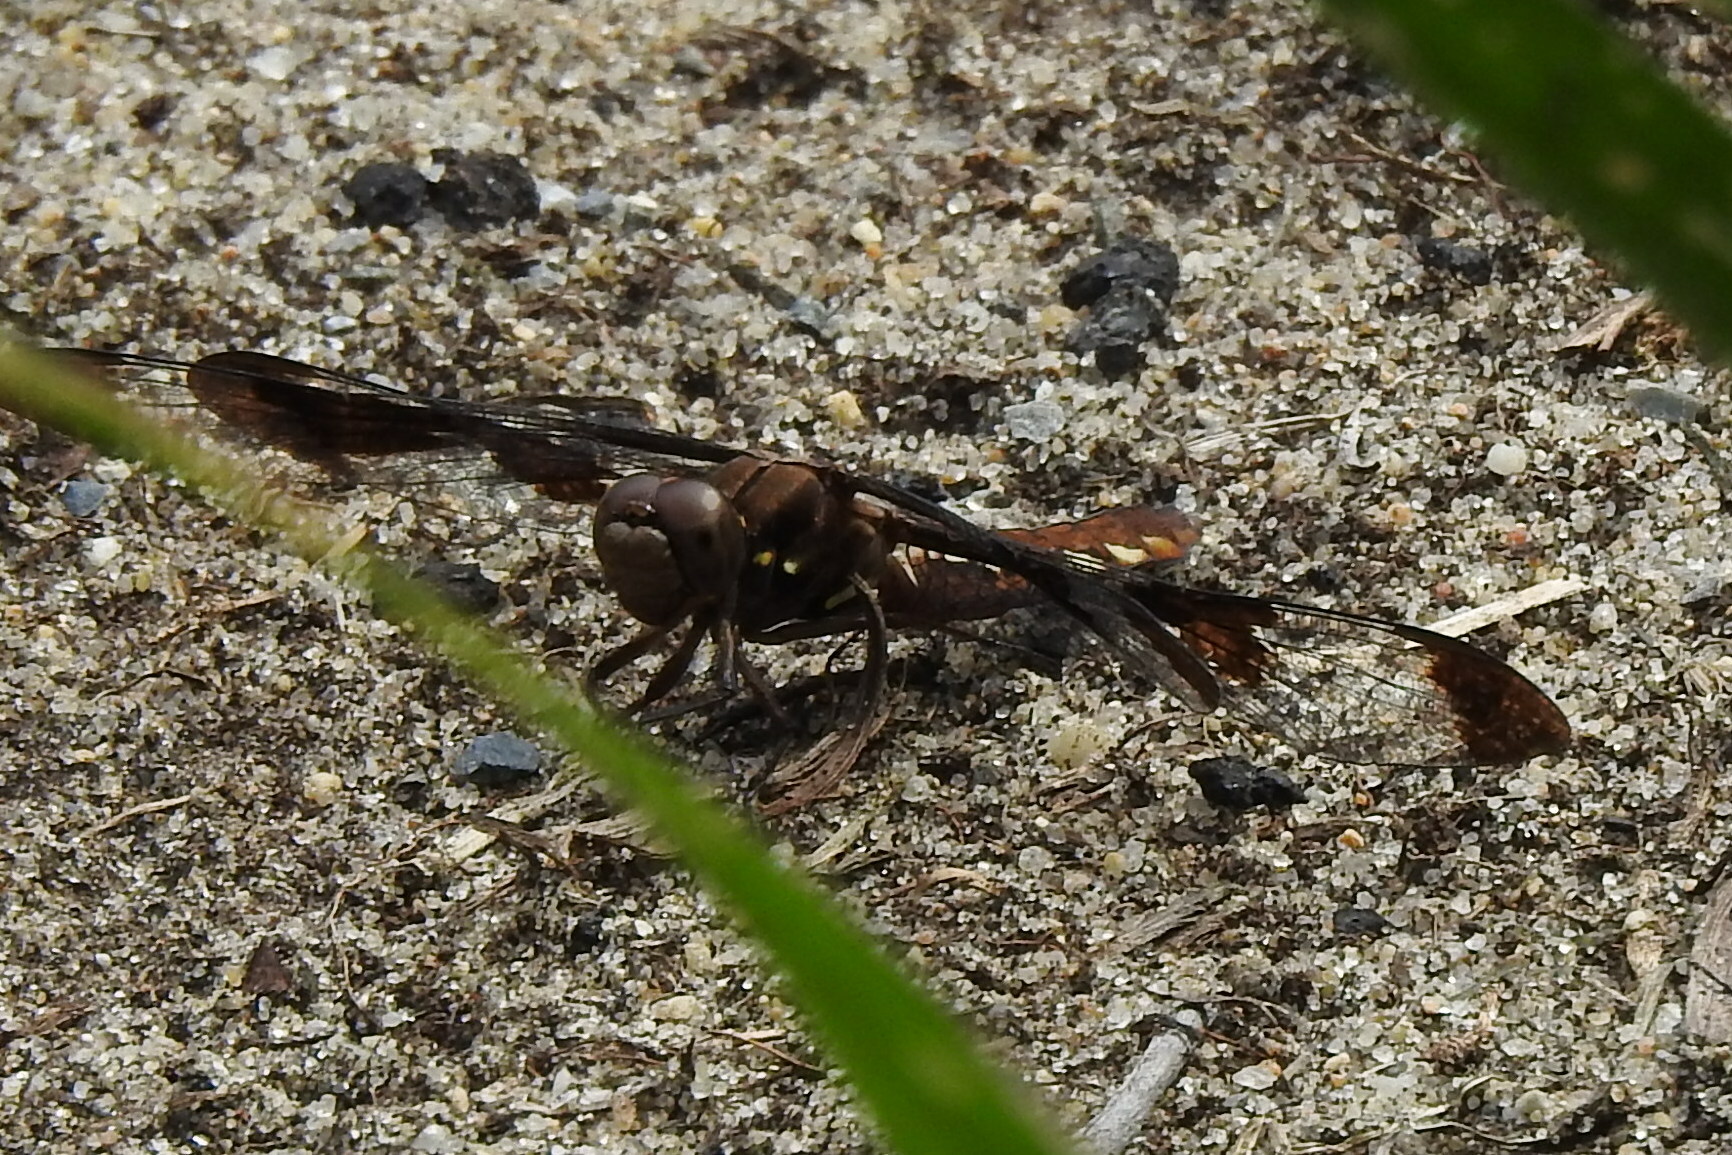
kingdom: Animalia
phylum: Arthropoda
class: Insecta
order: Odonata
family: Libellulidae
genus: Plathemis
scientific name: Plathemis lydia
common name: Common whitetail
